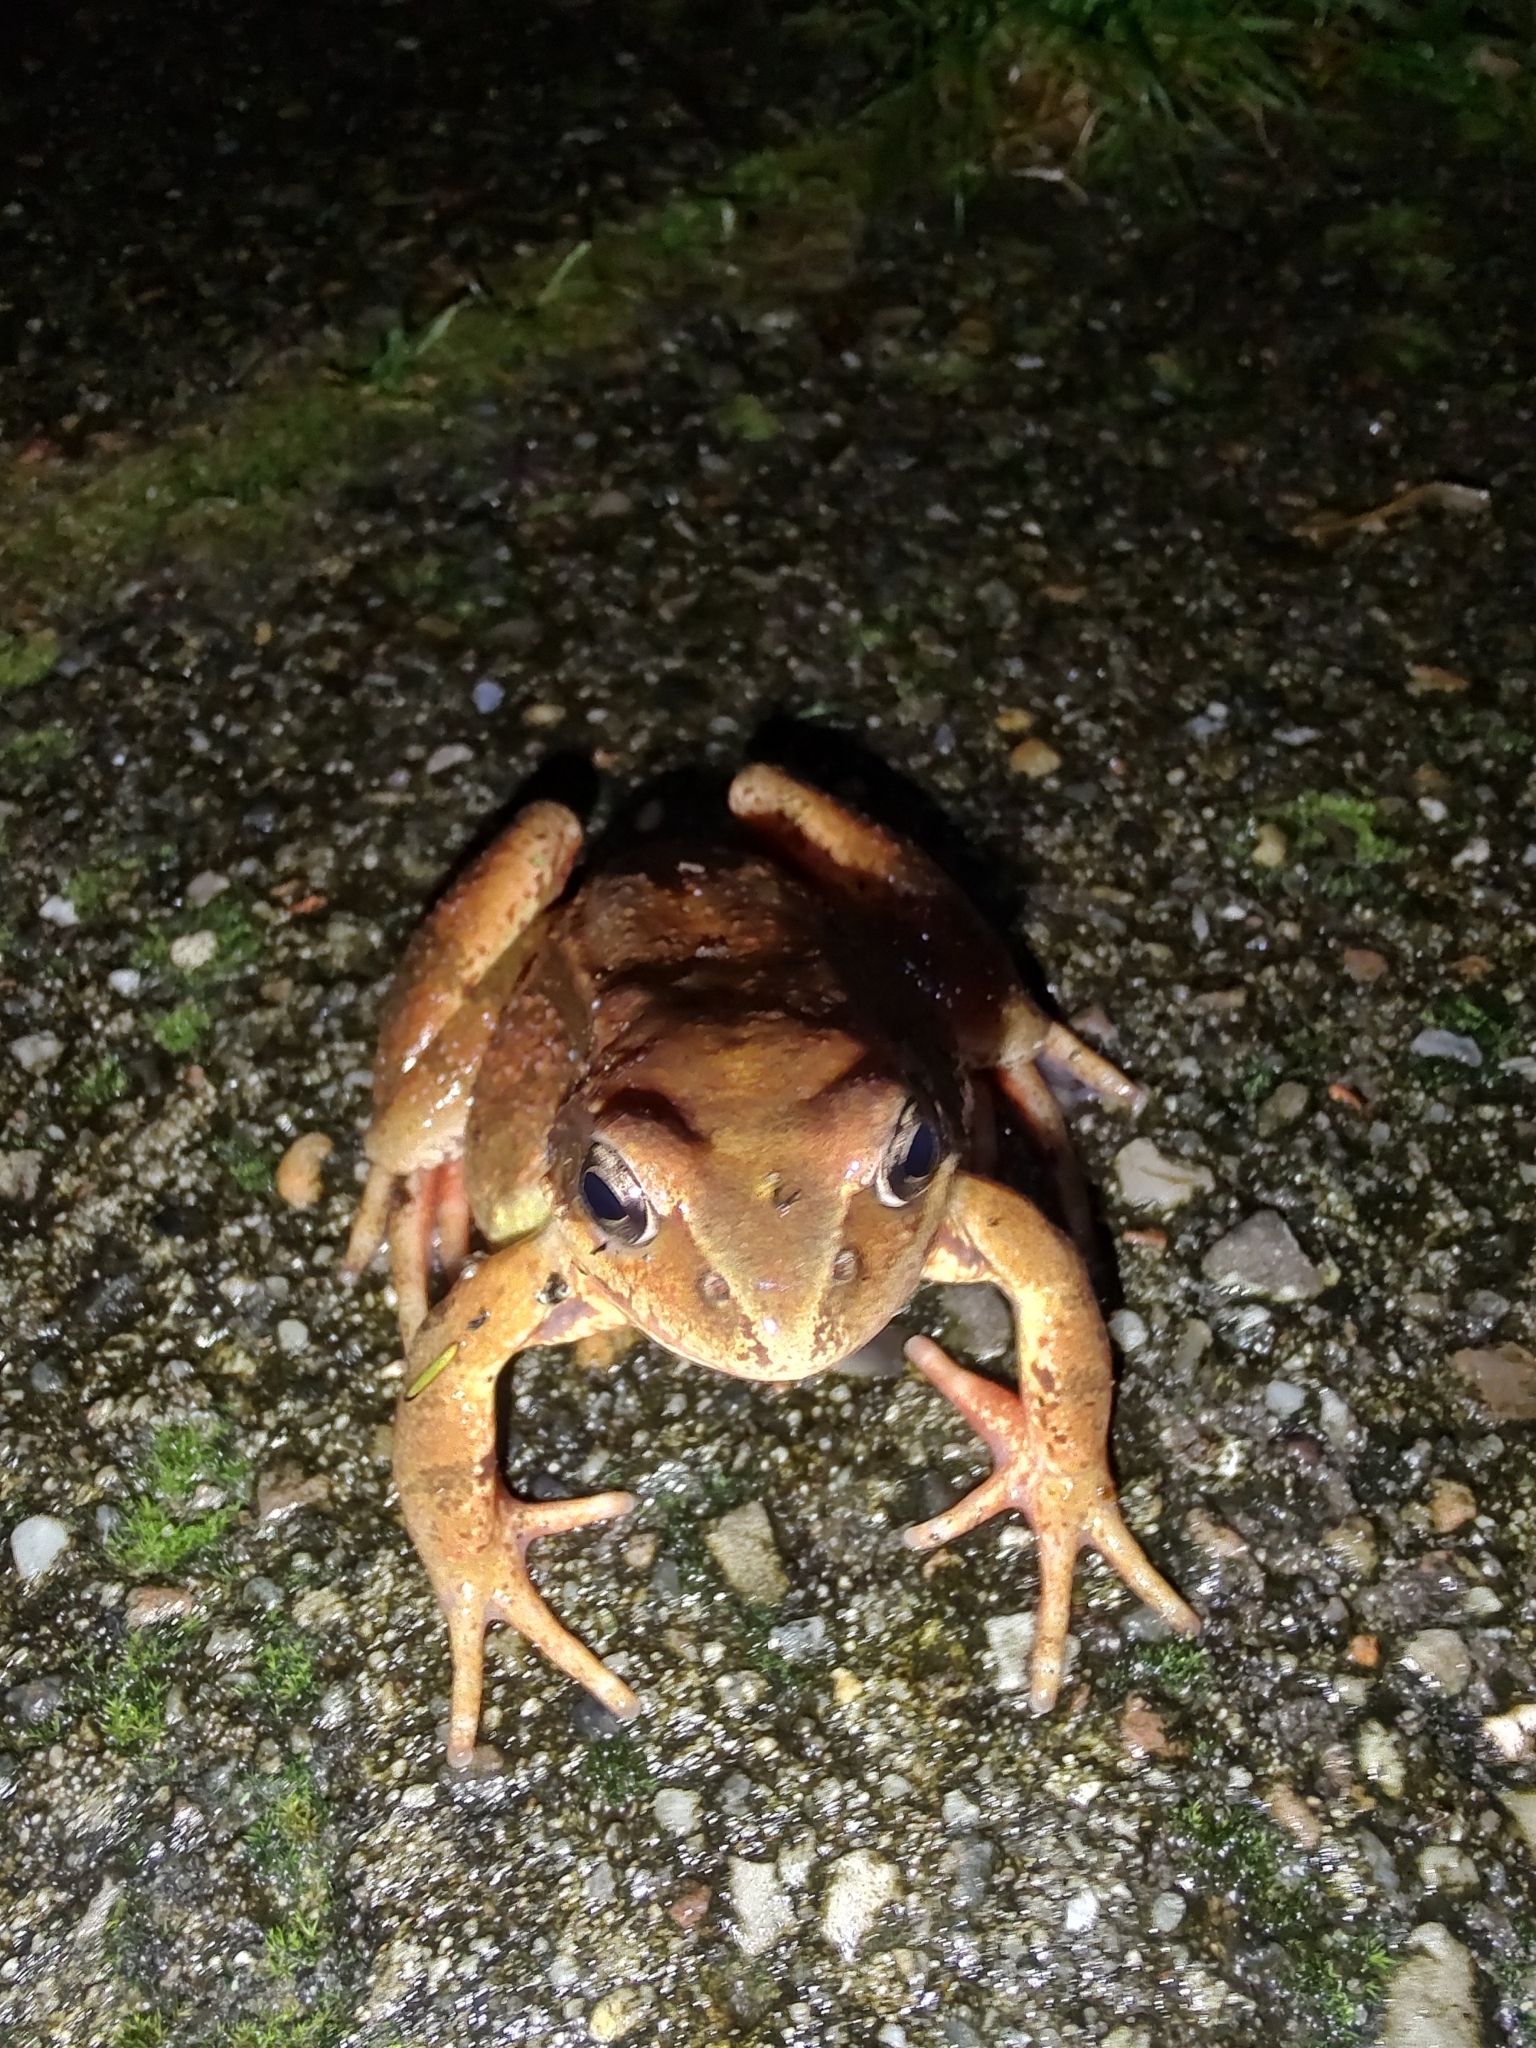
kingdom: Animalia
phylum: Chordata
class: Amphibia
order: Anura
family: Ranidae
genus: Rana
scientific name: Rana temporaria
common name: Common frog
